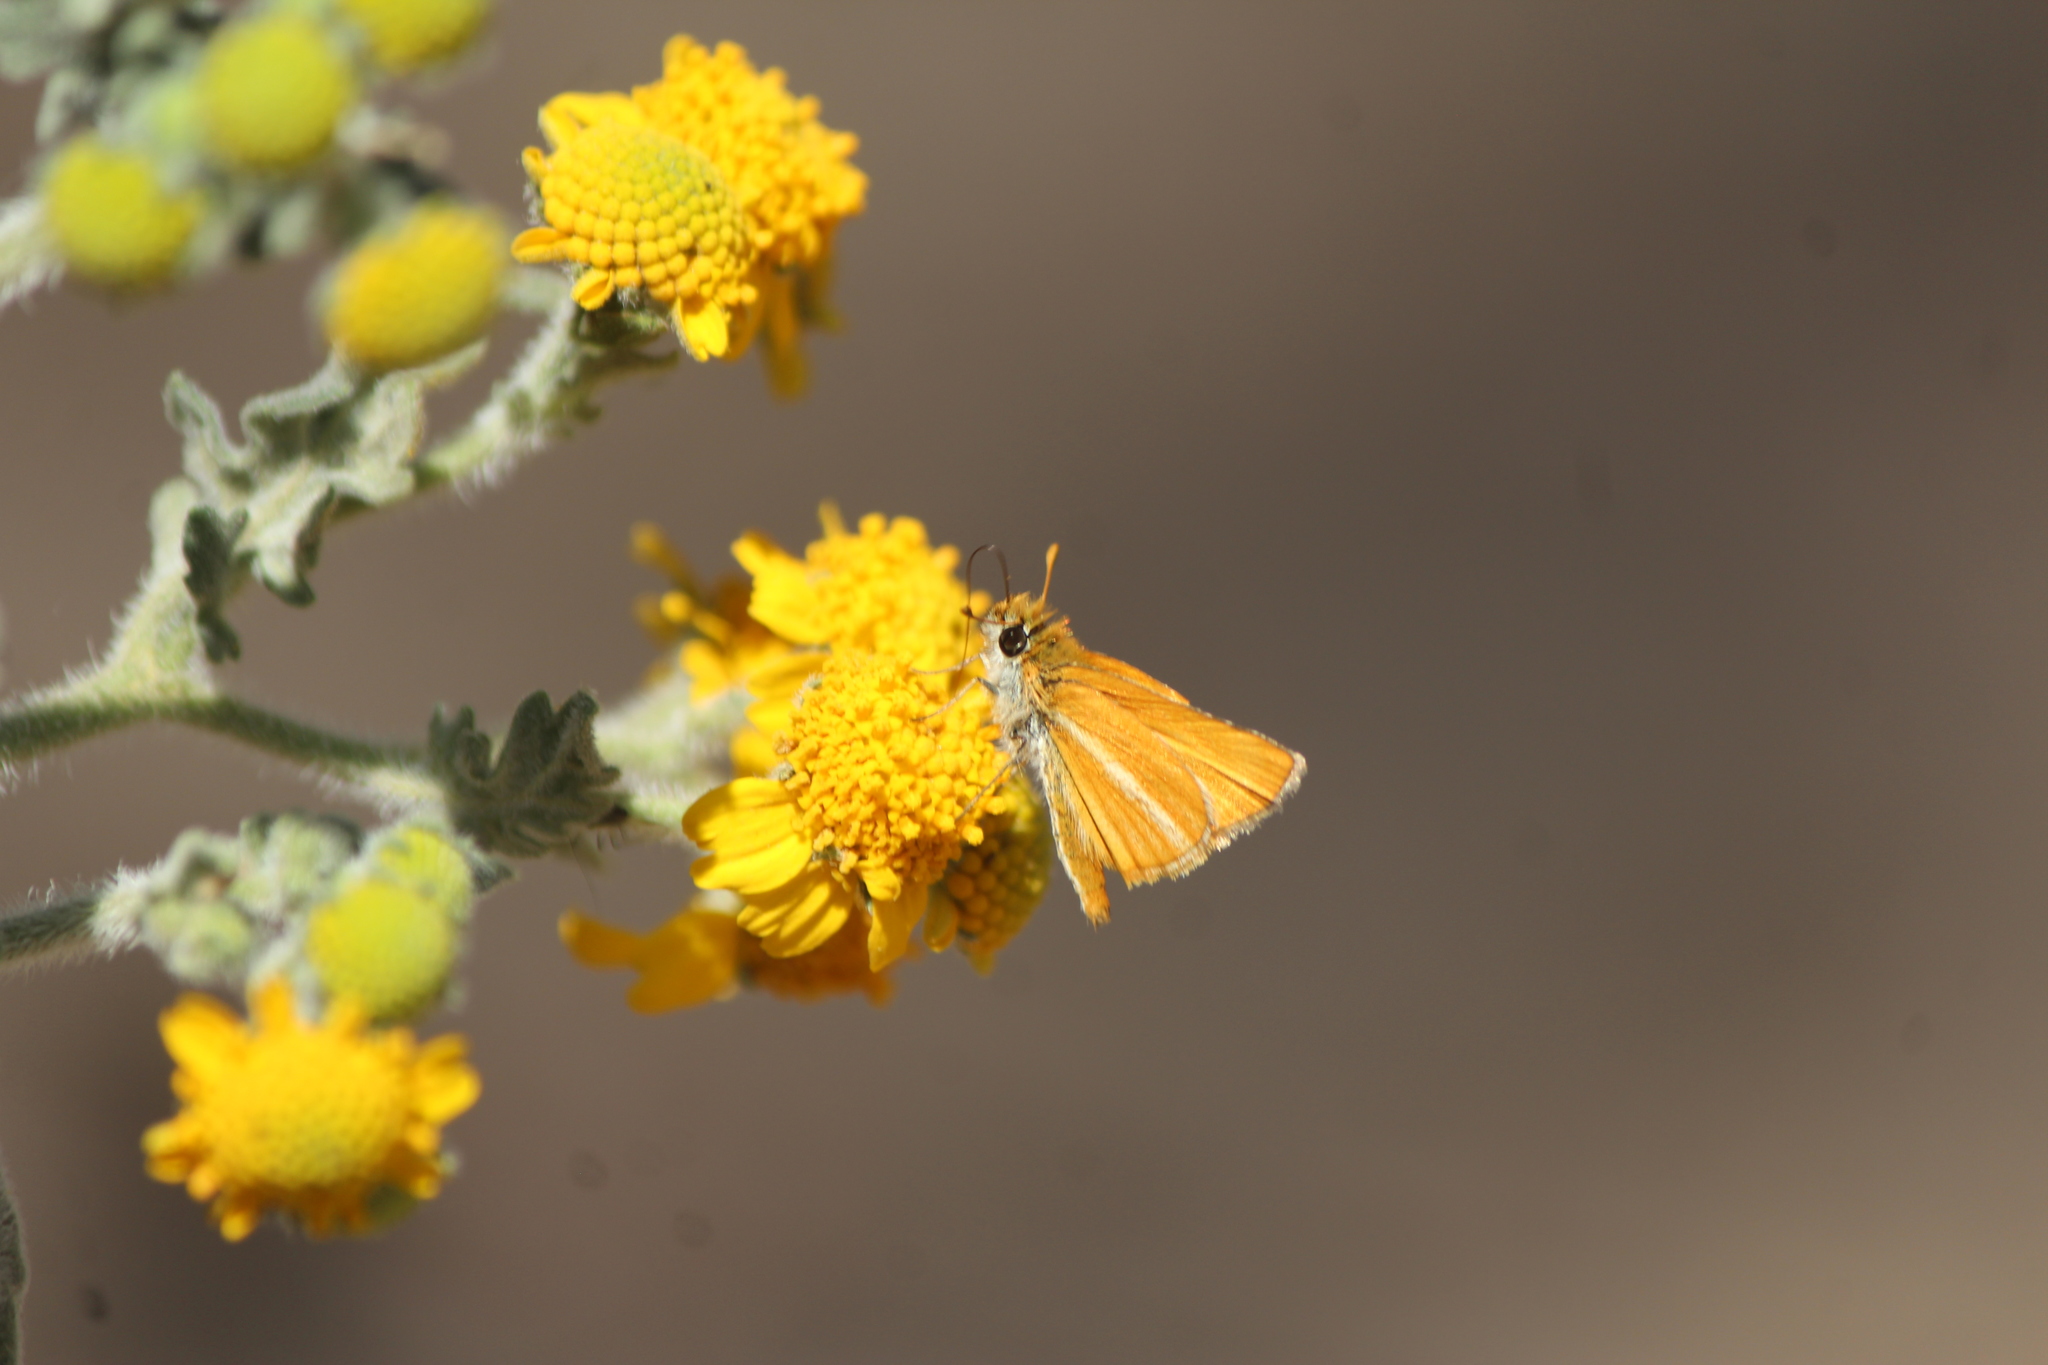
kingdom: Animalia
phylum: Arthropoda
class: Insecta
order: Lepidoptera
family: Hesperiidae
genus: Copaeodes
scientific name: Copaeodes minima
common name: Southern skipperling
